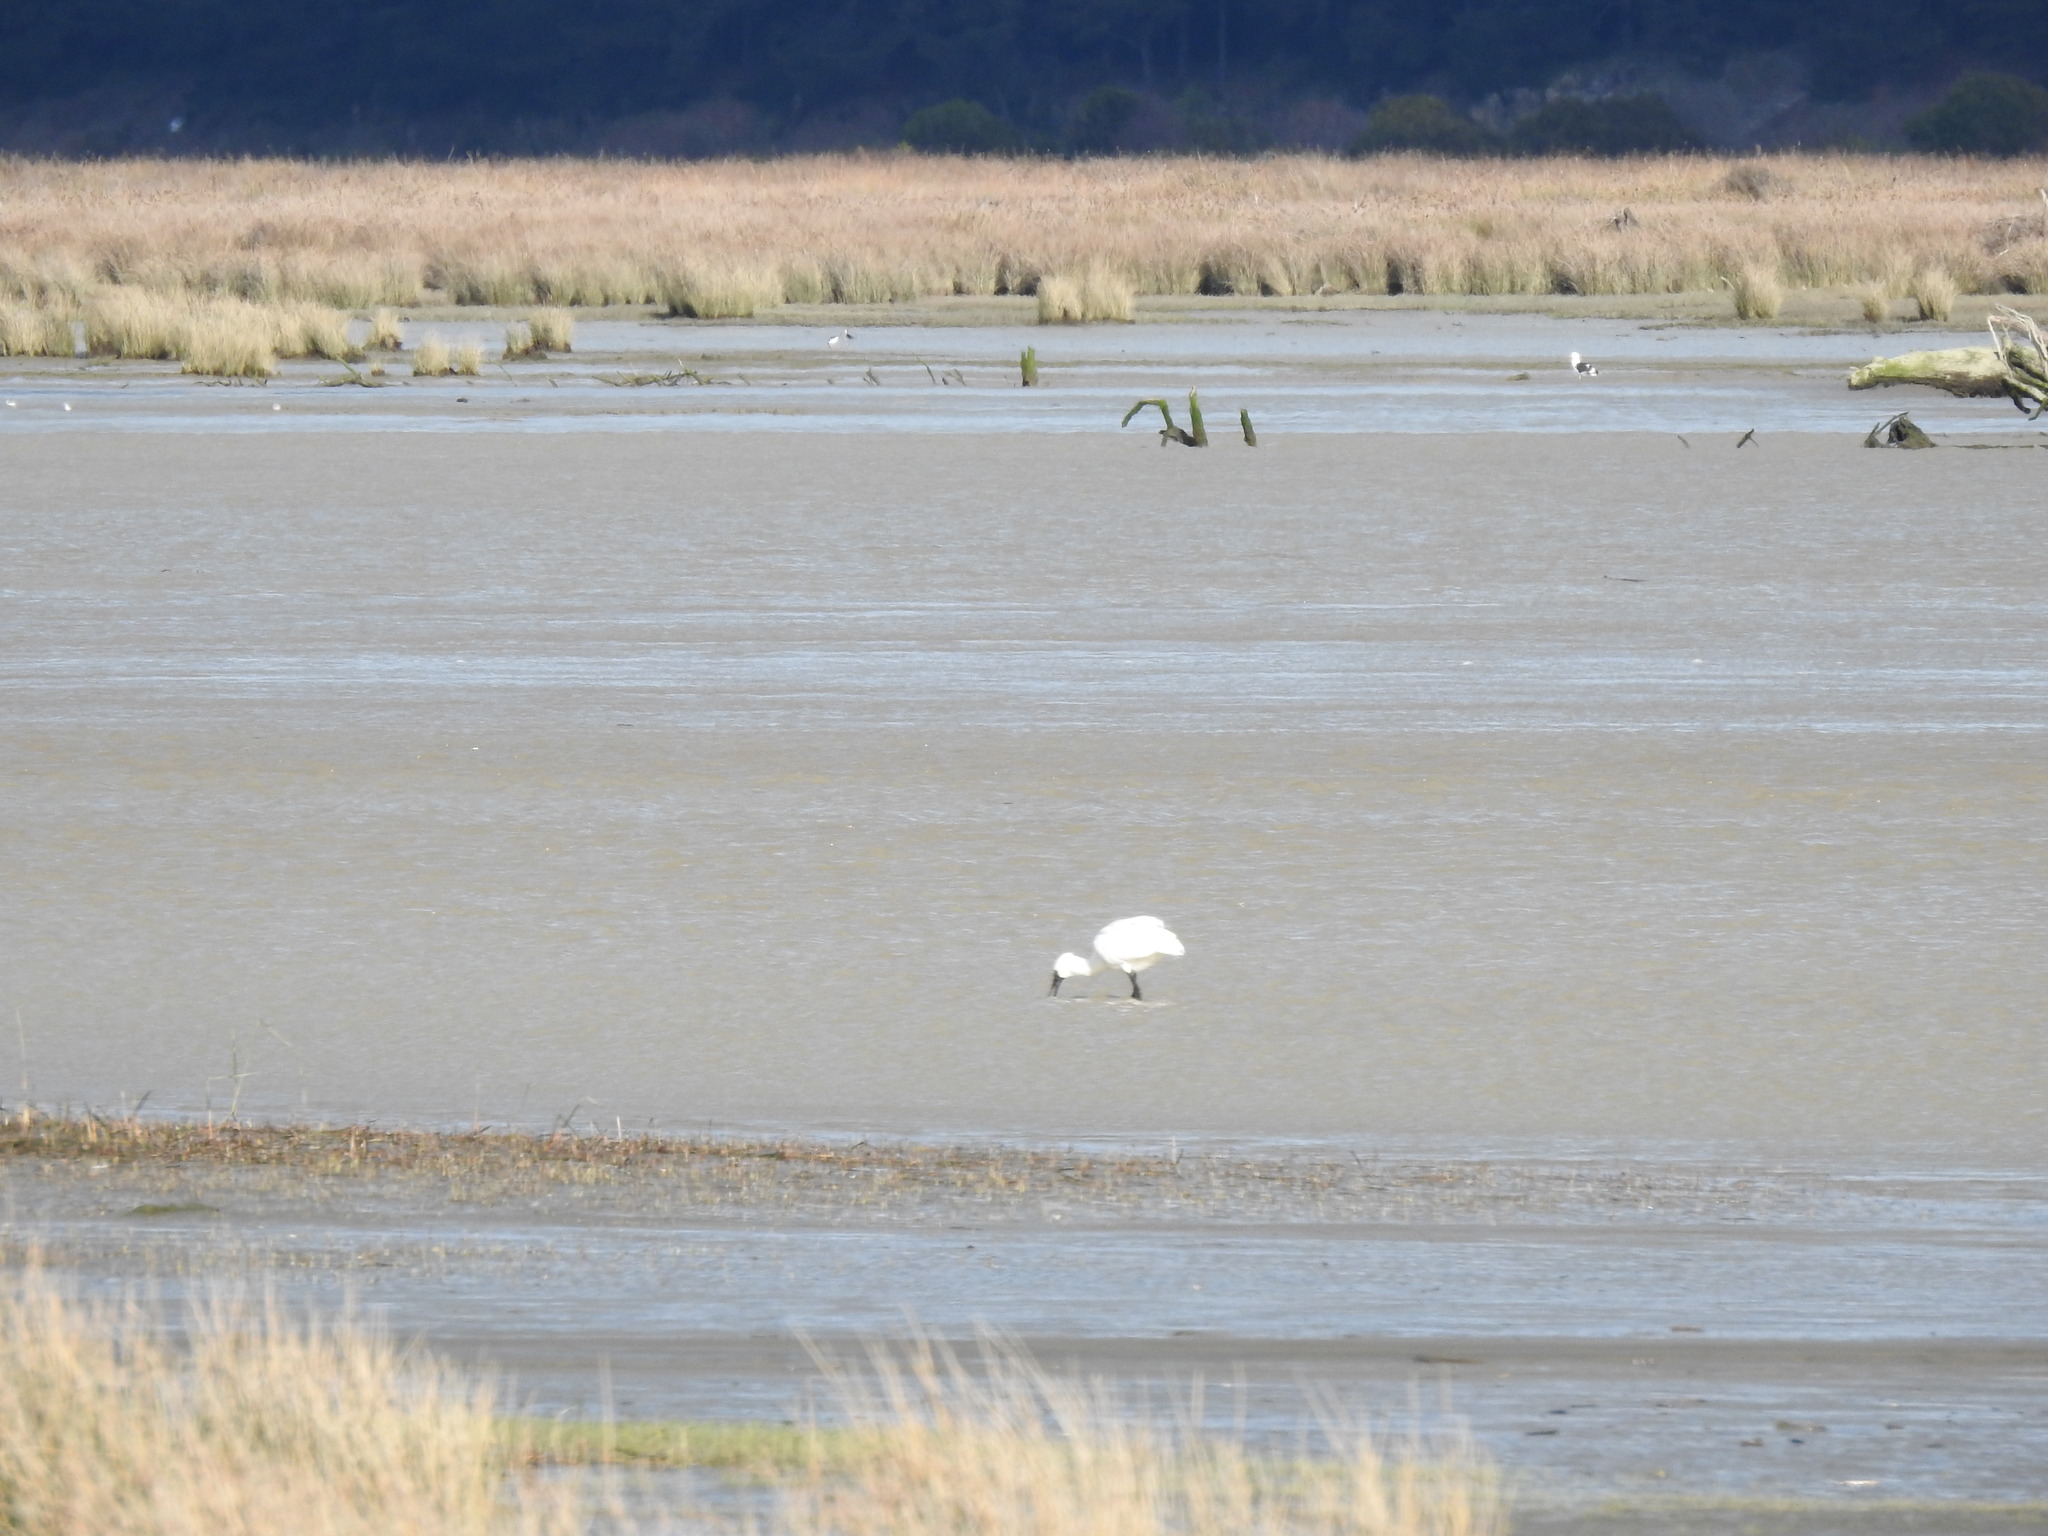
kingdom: Animalia
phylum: Chordata
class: Aves
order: Pelecaniformes
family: Threskiornithidae
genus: Platalea
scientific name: Platalea regia
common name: Royal spoonbill
